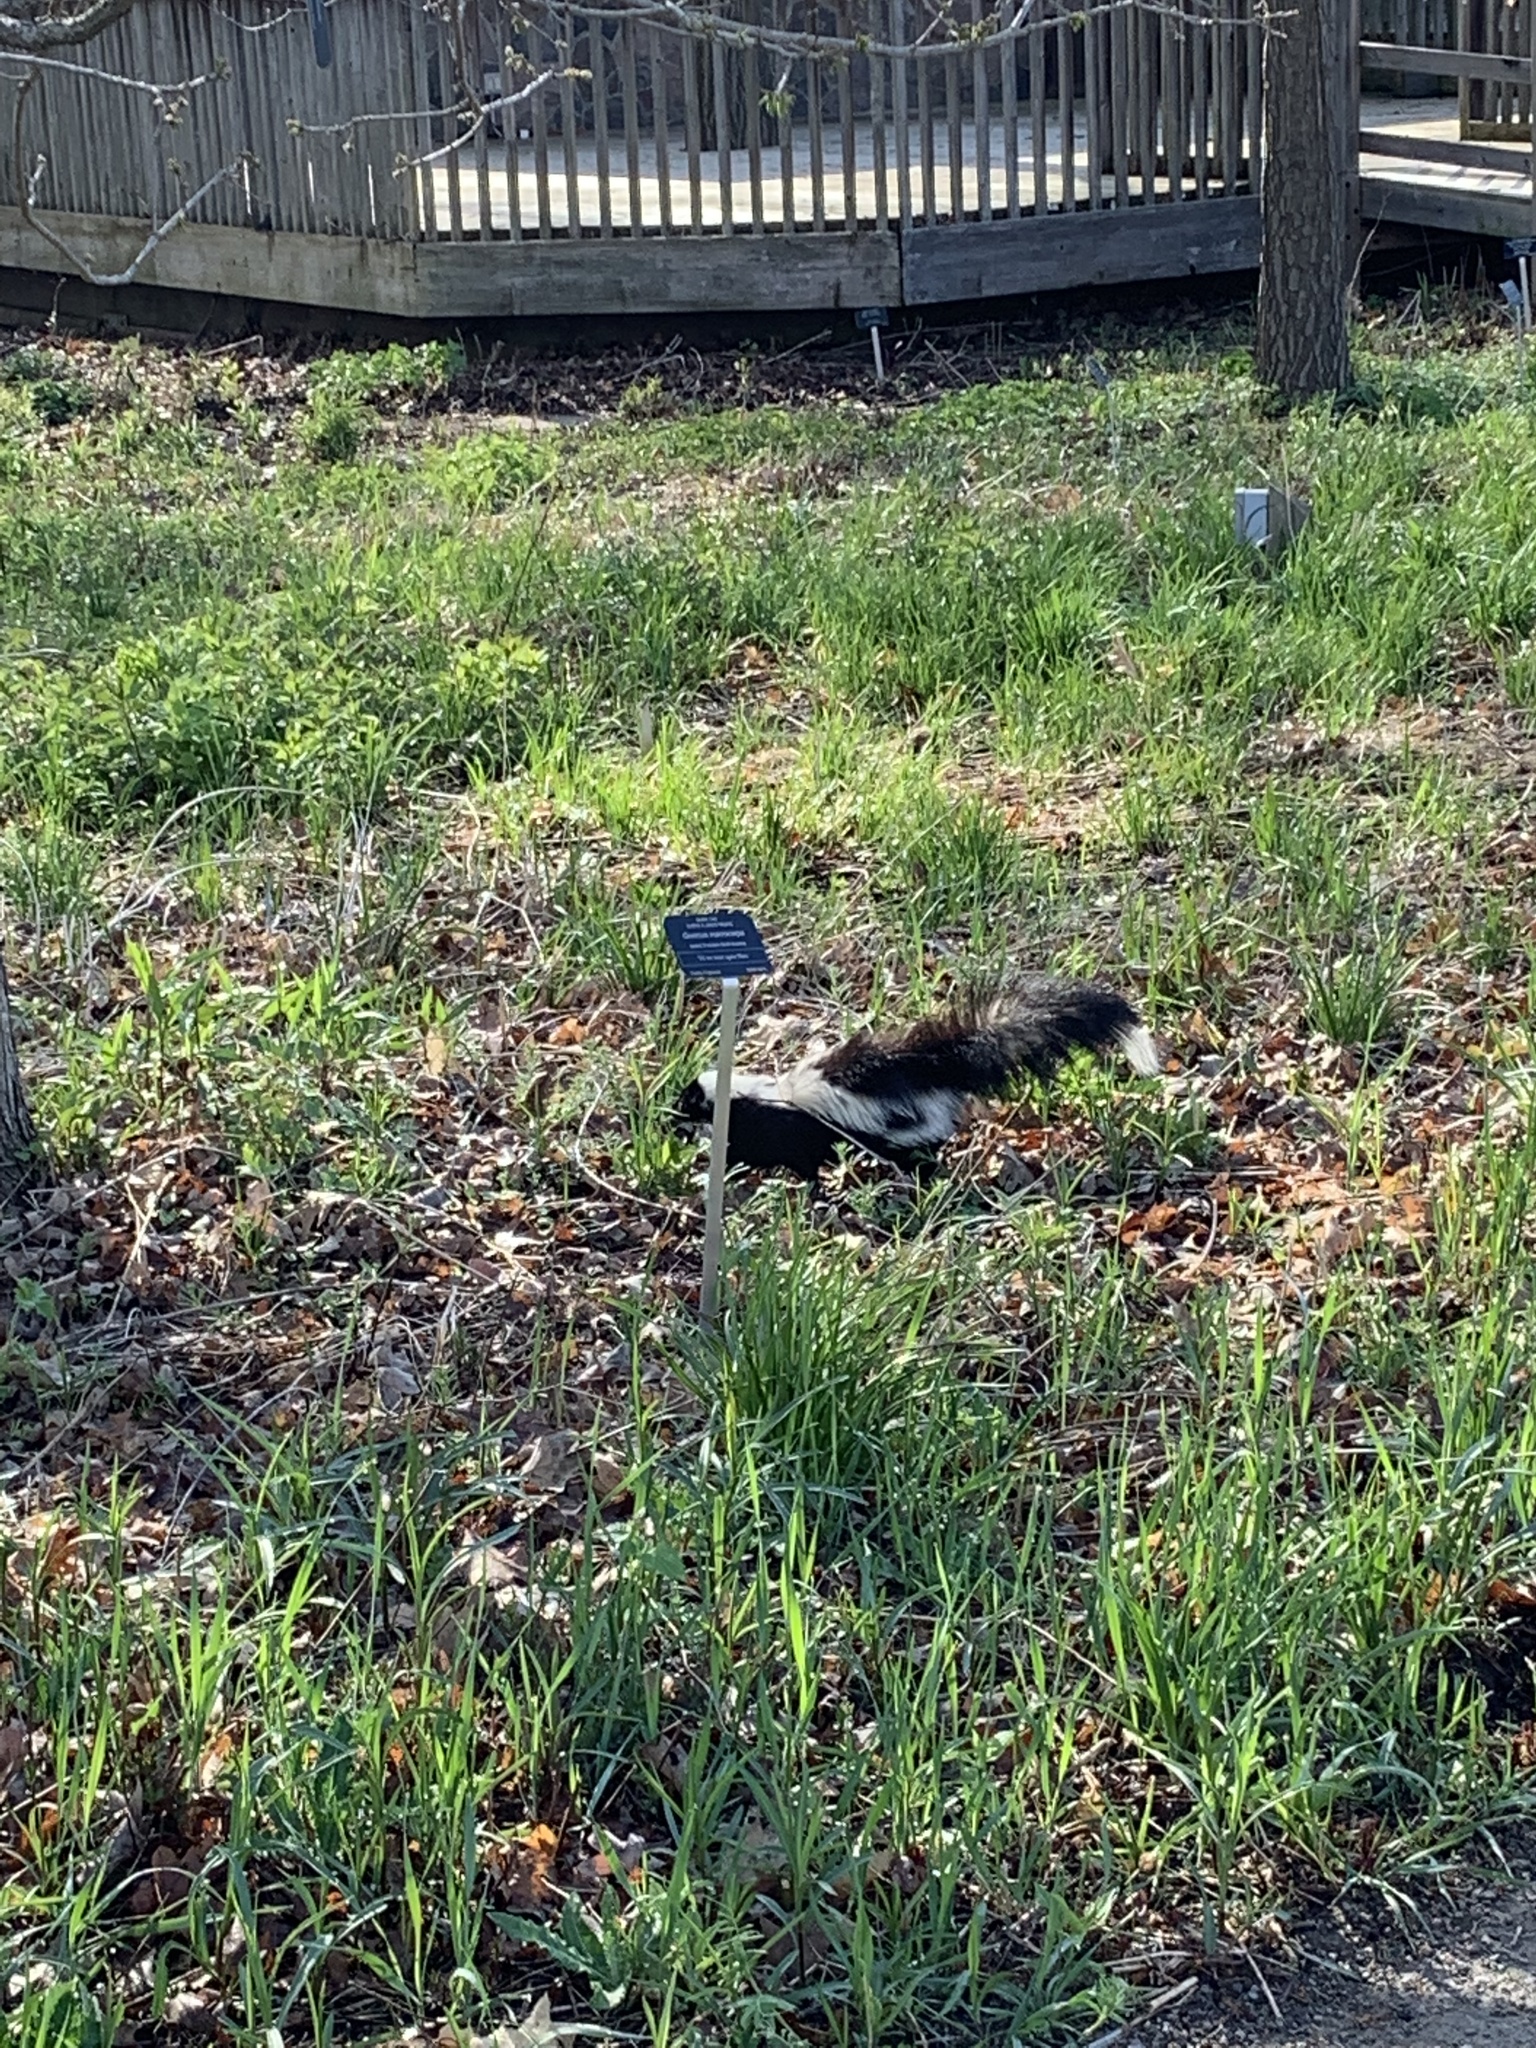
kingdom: Animalia
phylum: Chordata
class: Mammalia
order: Carnivora
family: Mephitidae
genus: Mephitis
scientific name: Mephitis mephitis
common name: Striped skunk
